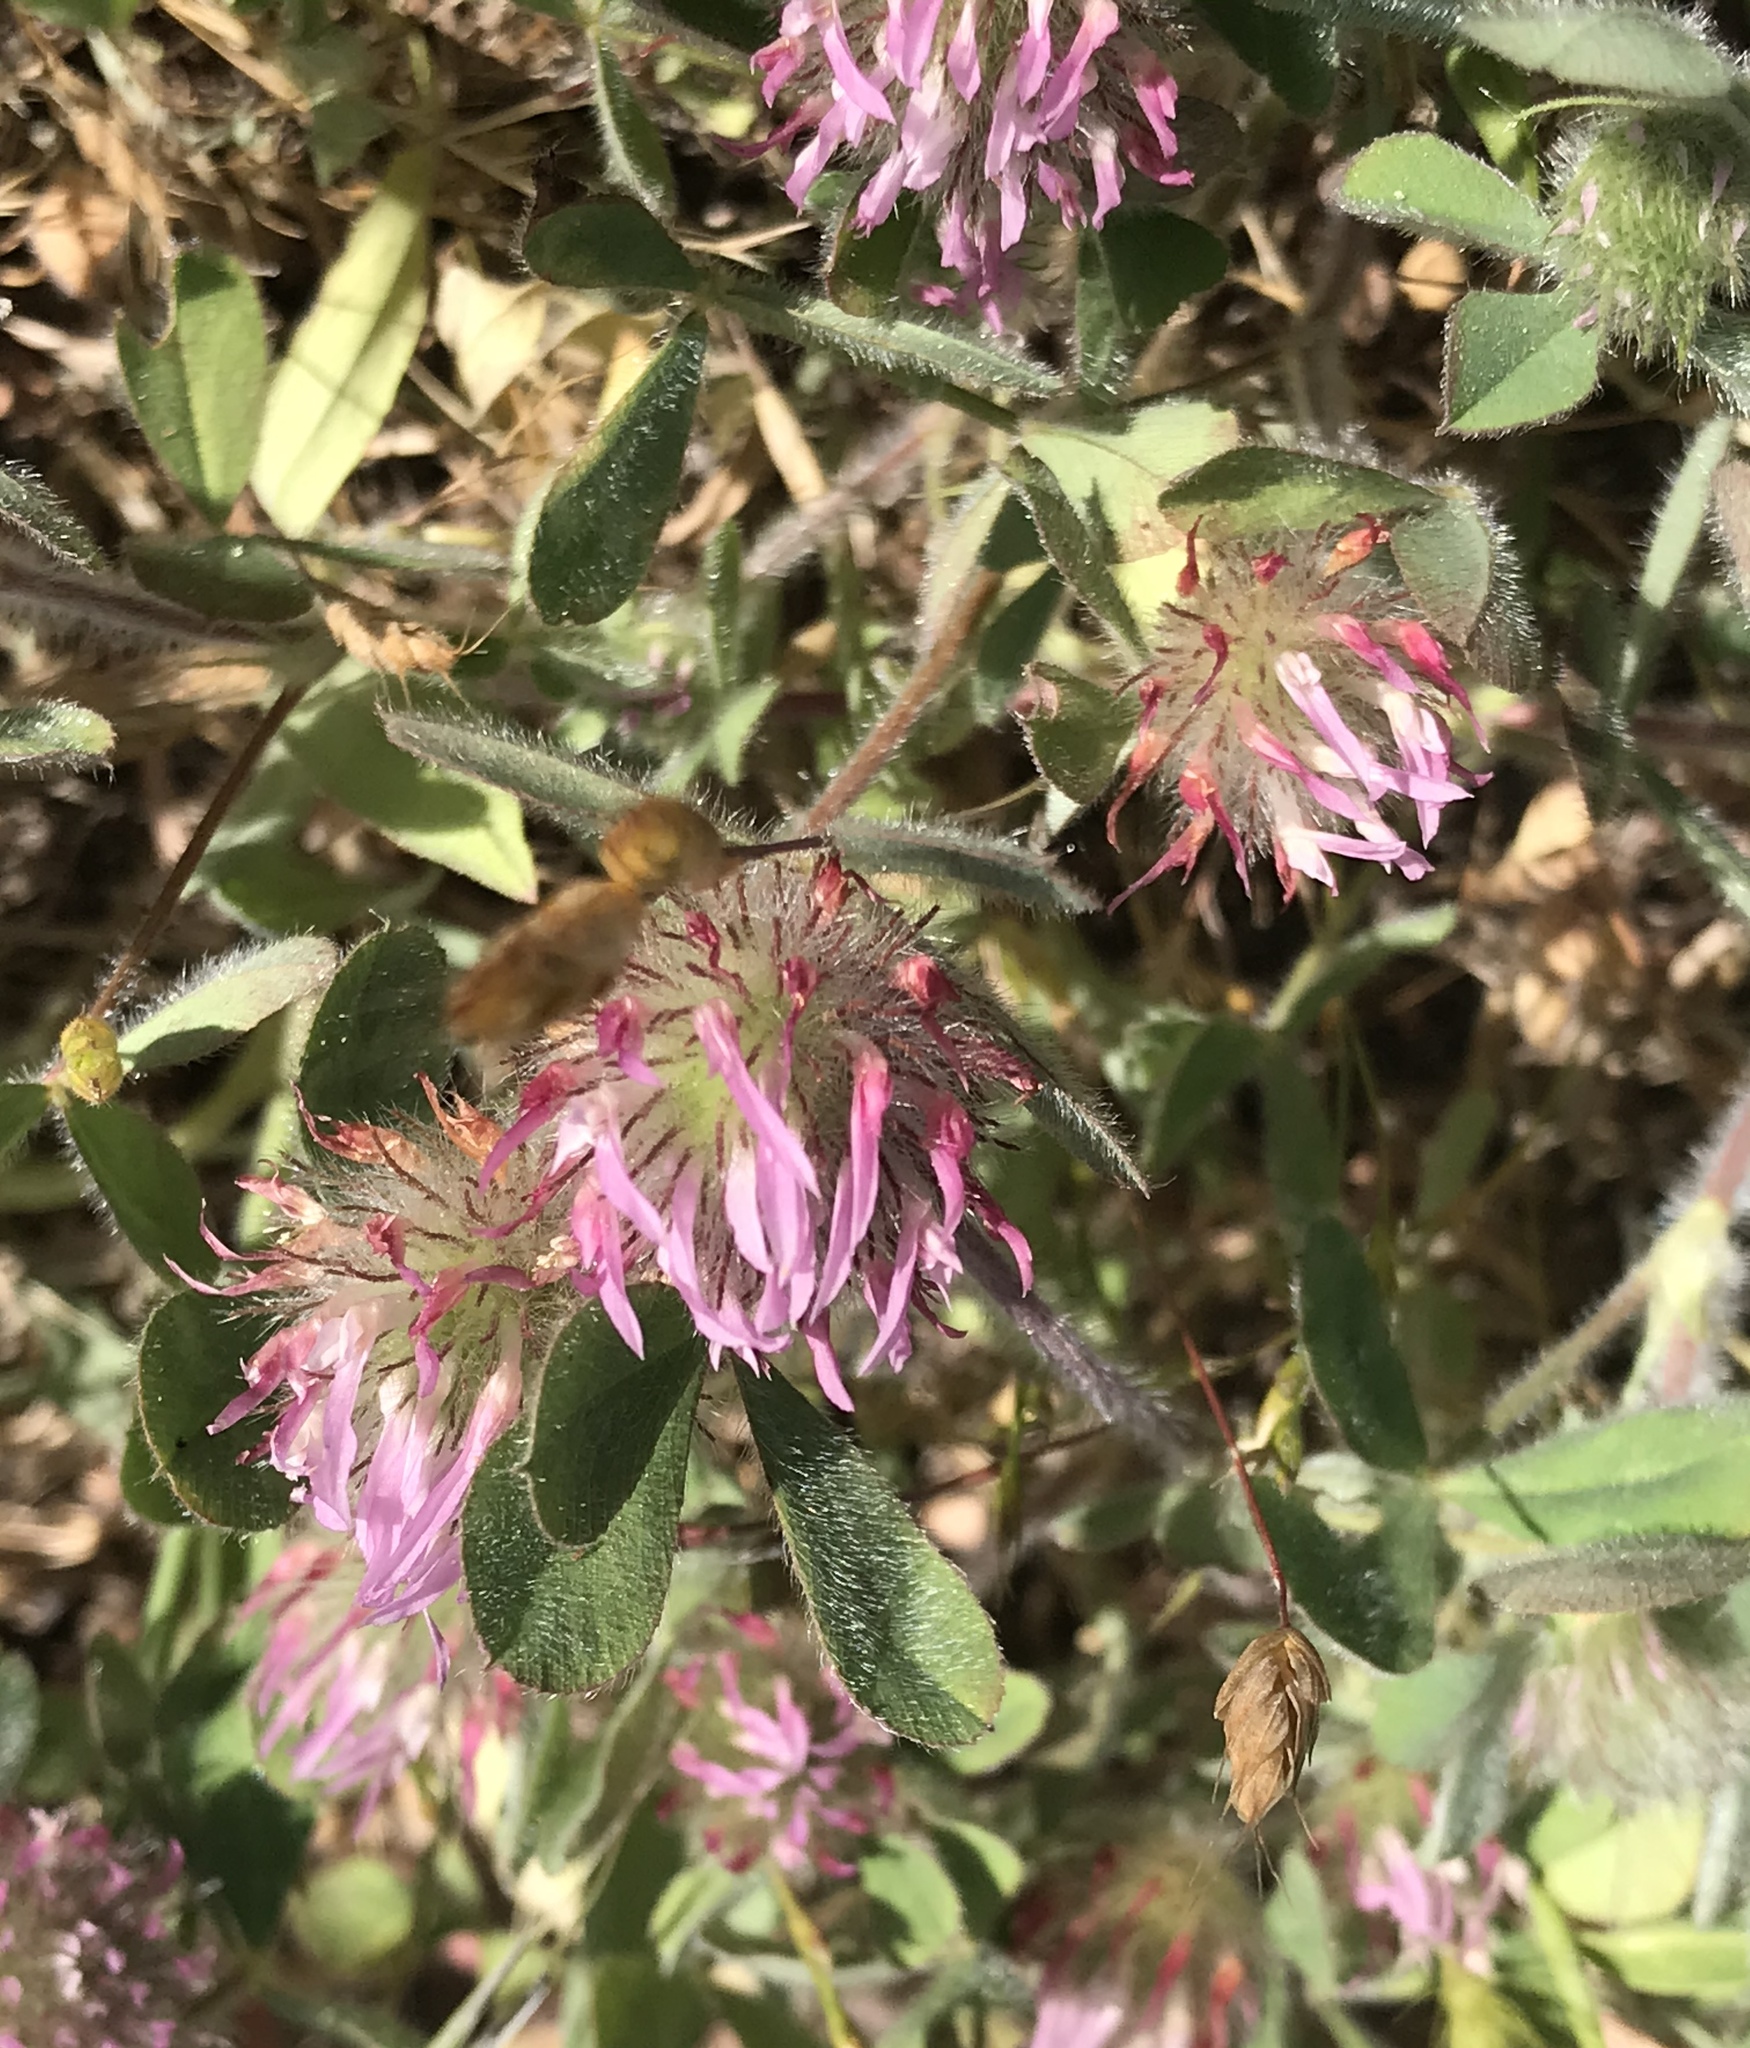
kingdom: Plantae
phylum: Tracheophyta
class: Magnoliopsida
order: Fabales
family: Fabaceae
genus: Trifolium
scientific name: Trifolium hirtum
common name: Rose clover
